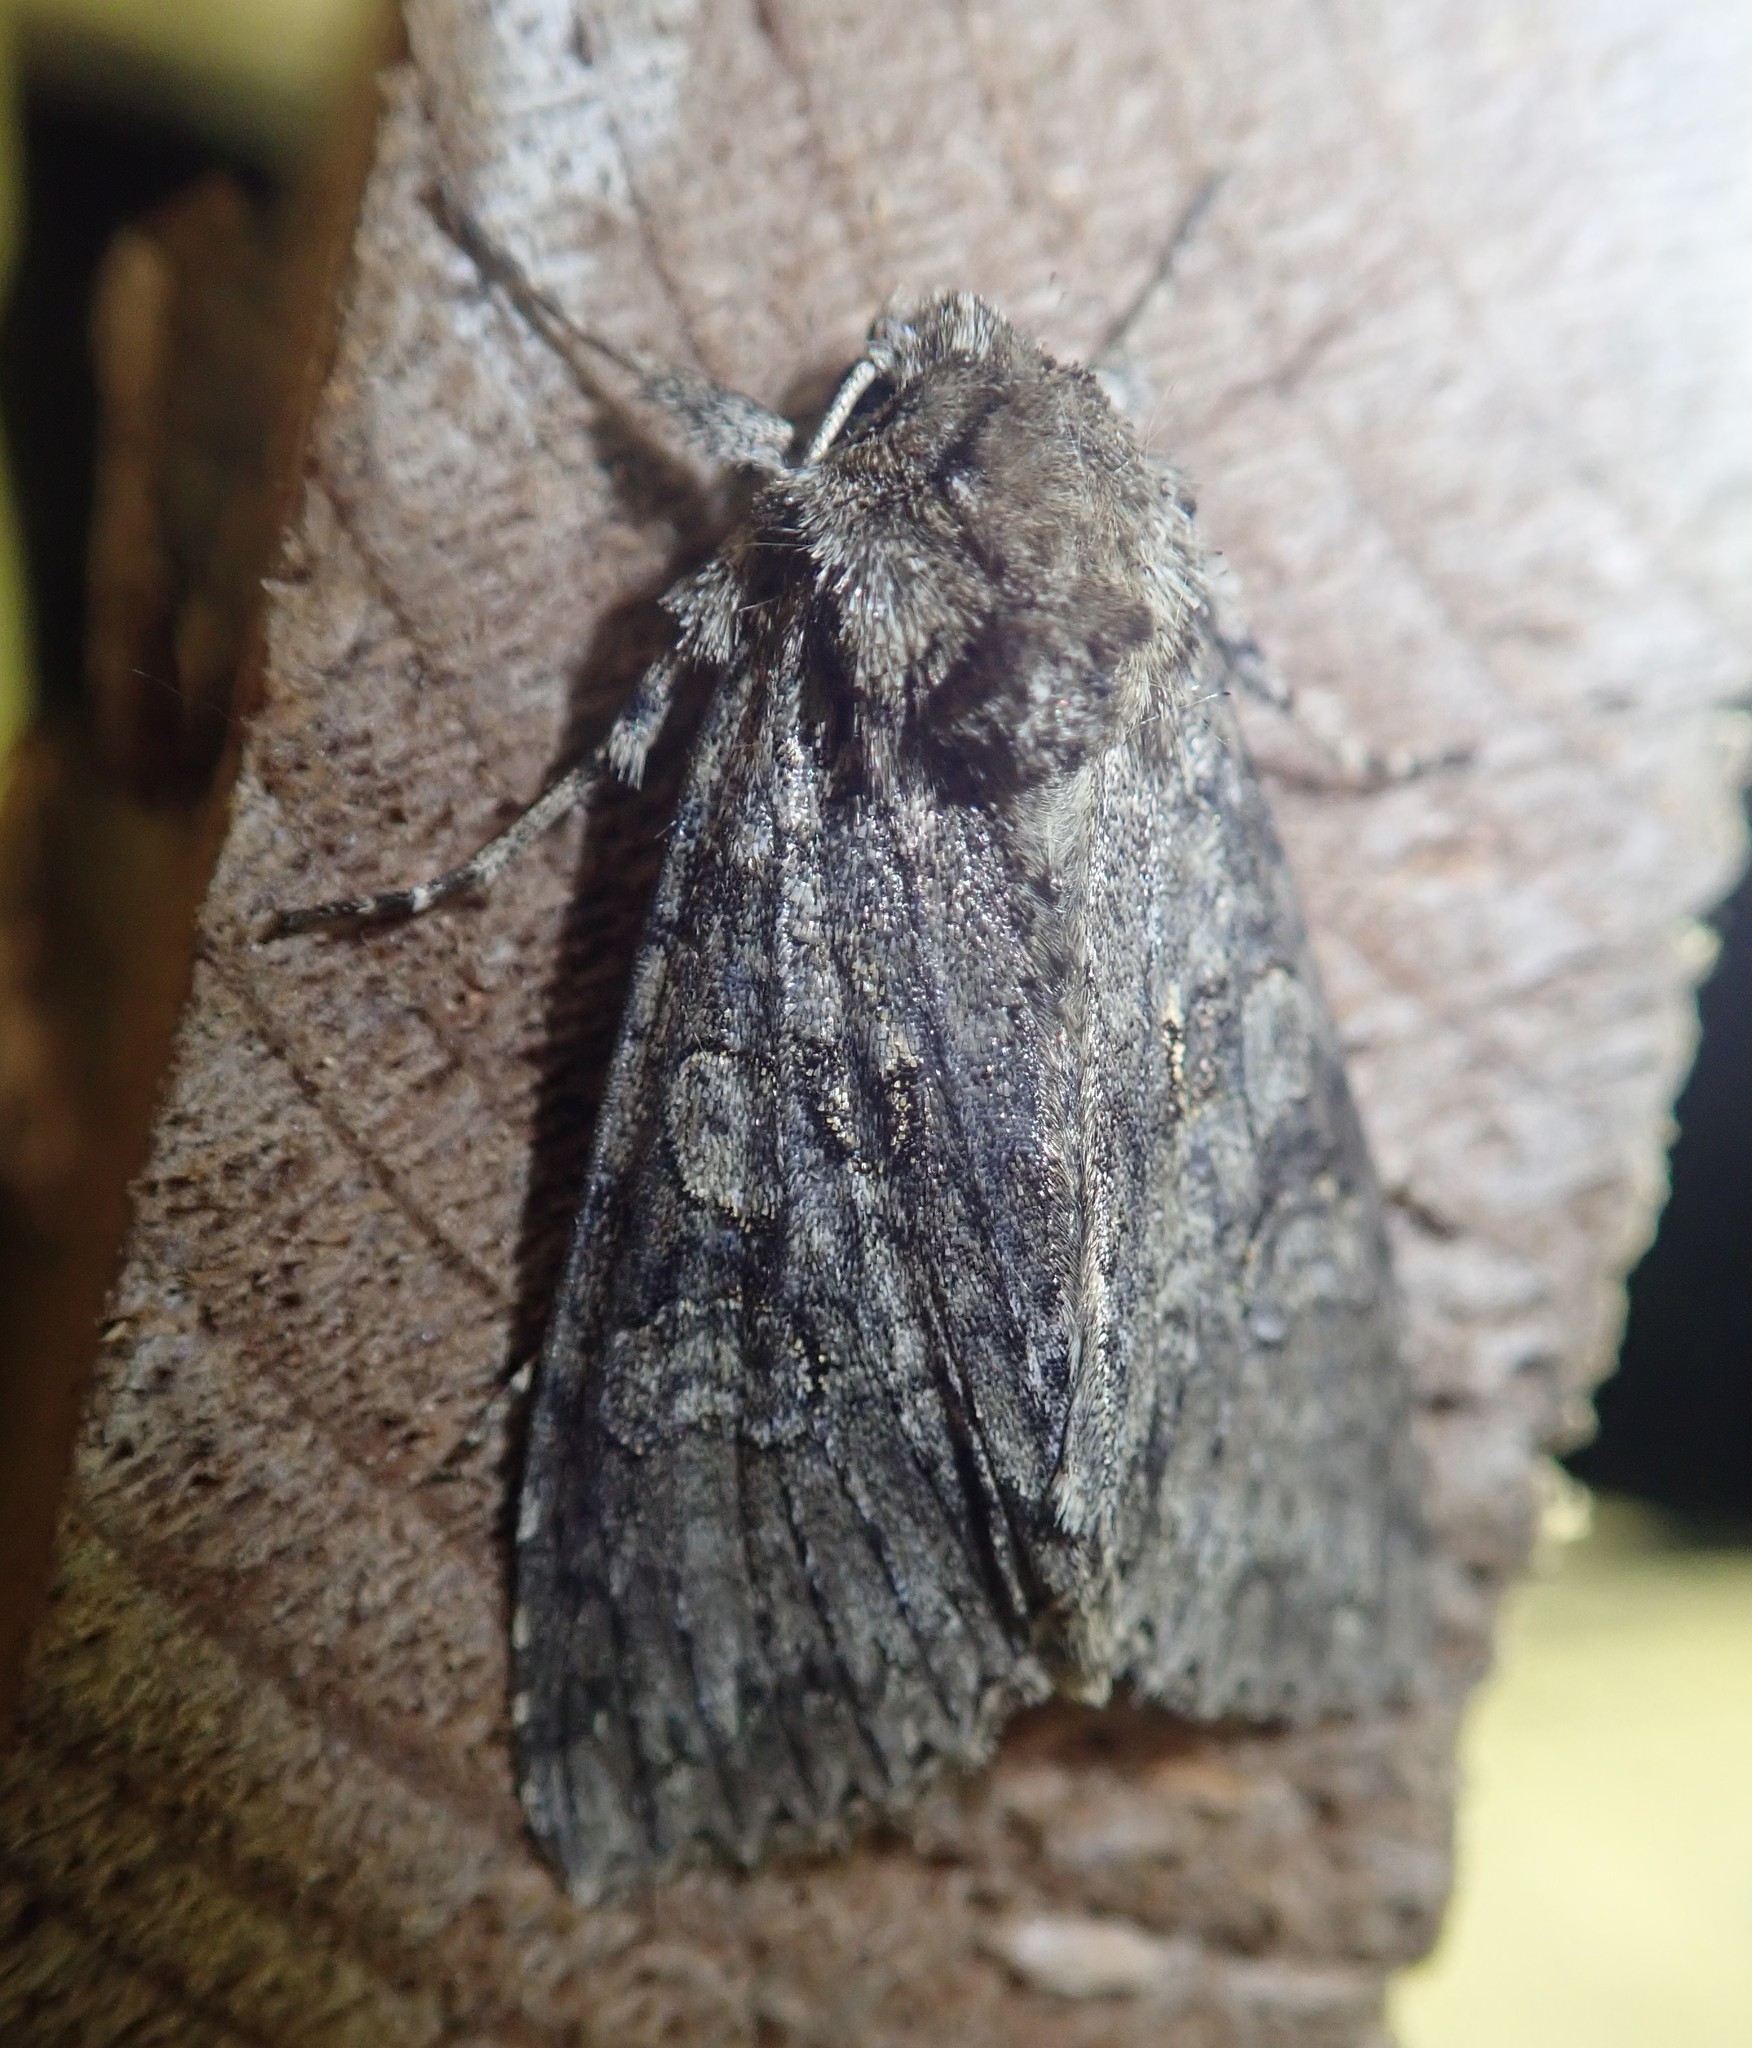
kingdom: Animalia
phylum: Arthropoda
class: Insecta
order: Lepidoptera
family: Noctuidae
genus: Polia
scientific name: Polia nebulosa
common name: Grey arches
